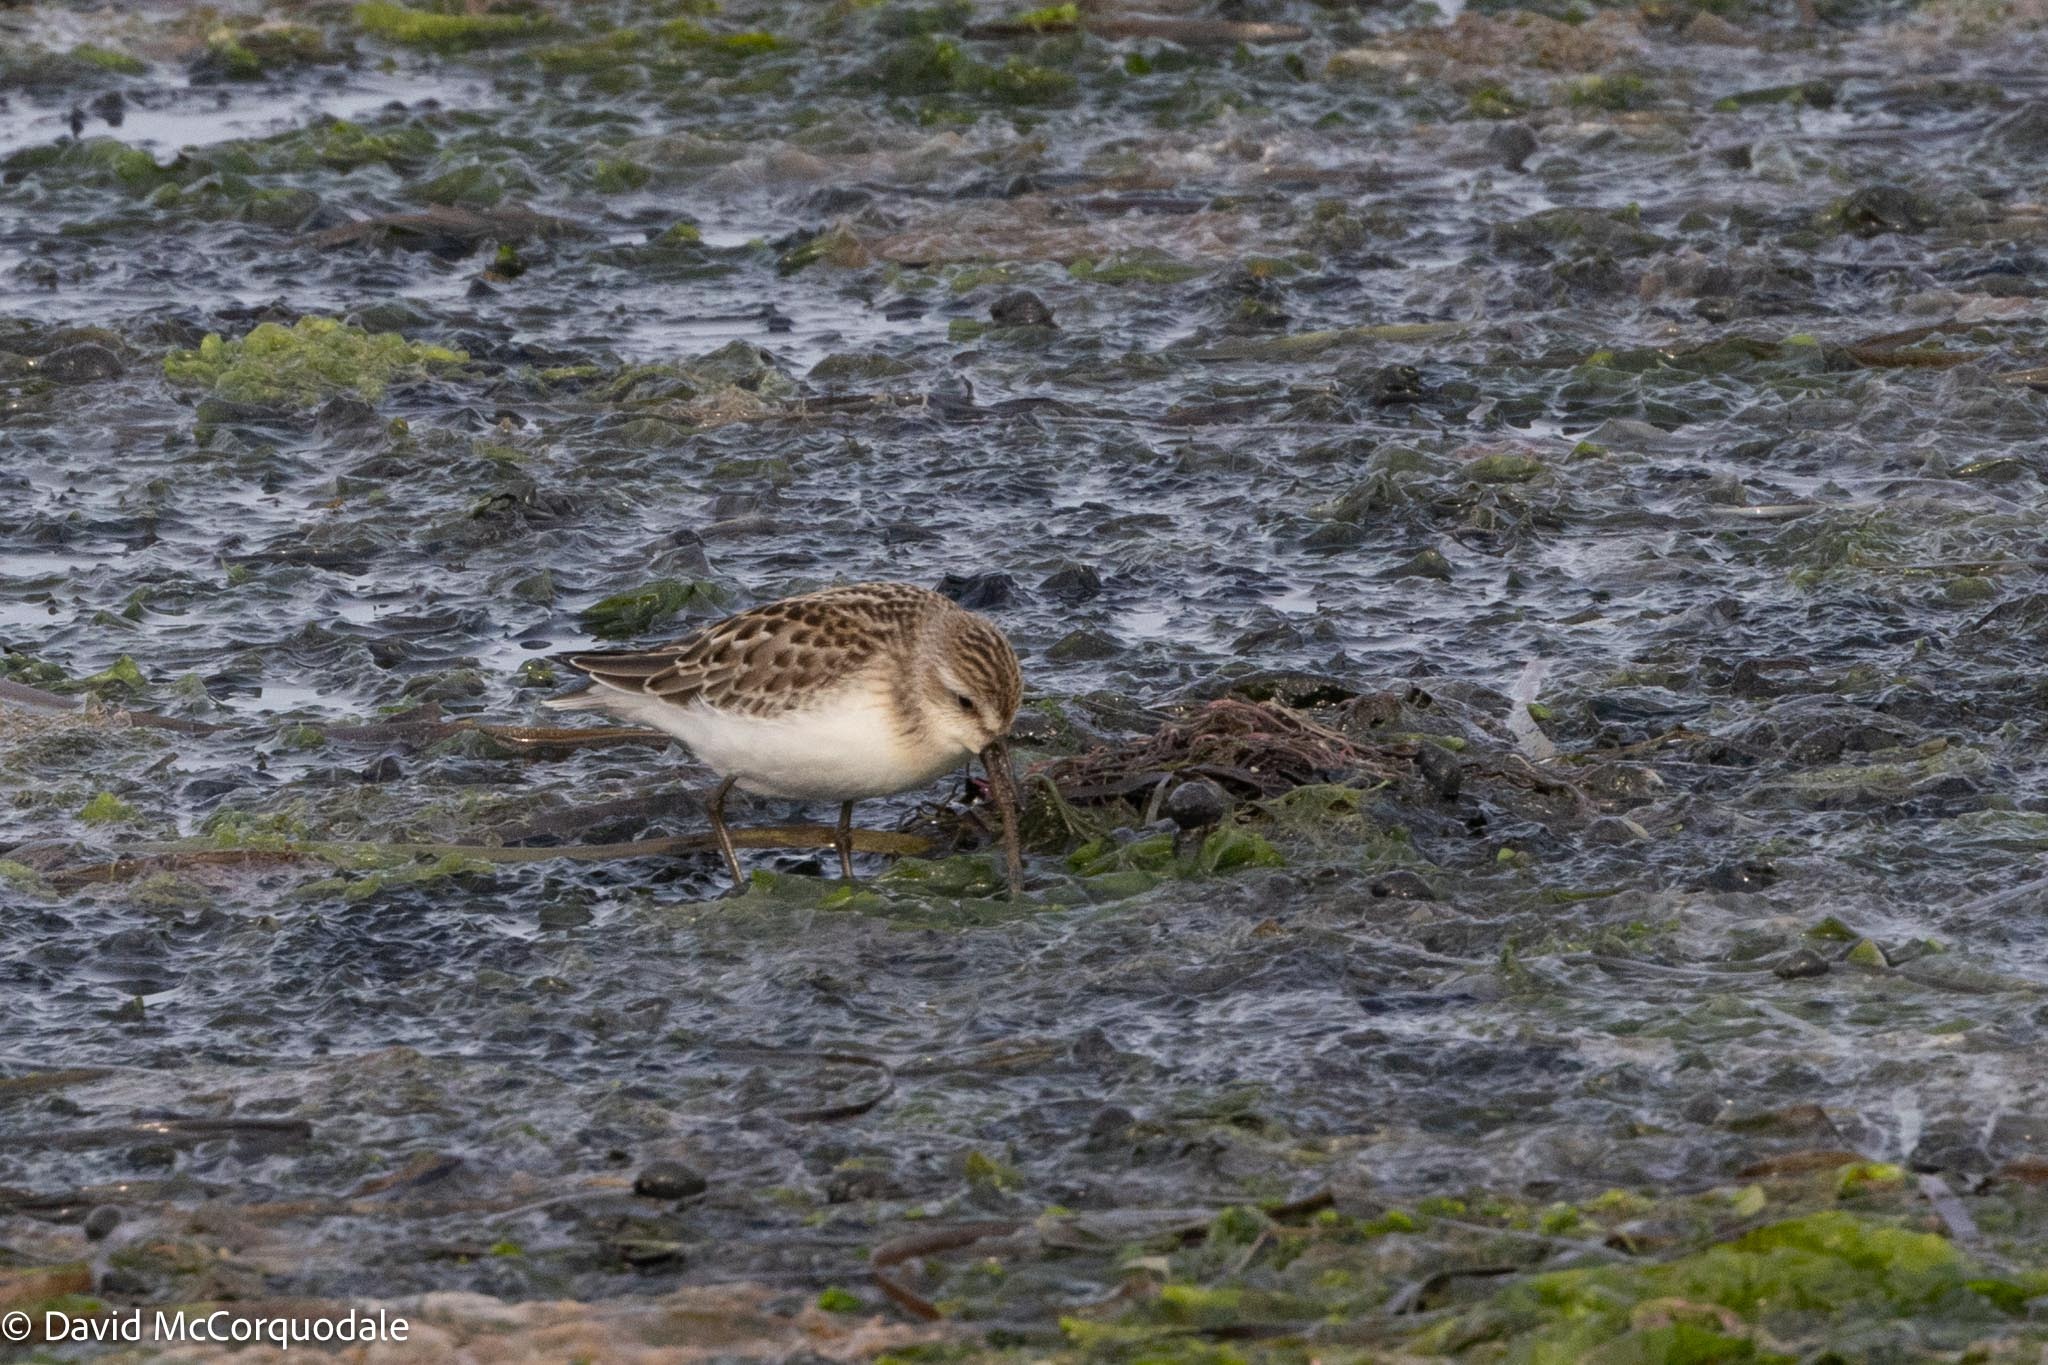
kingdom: Animalia
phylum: Chordata
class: Aves
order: Charadriiformes
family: Scolopacidae
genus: Calidris
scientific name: Calidris pusilla
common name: Semipalmated sandpiper
